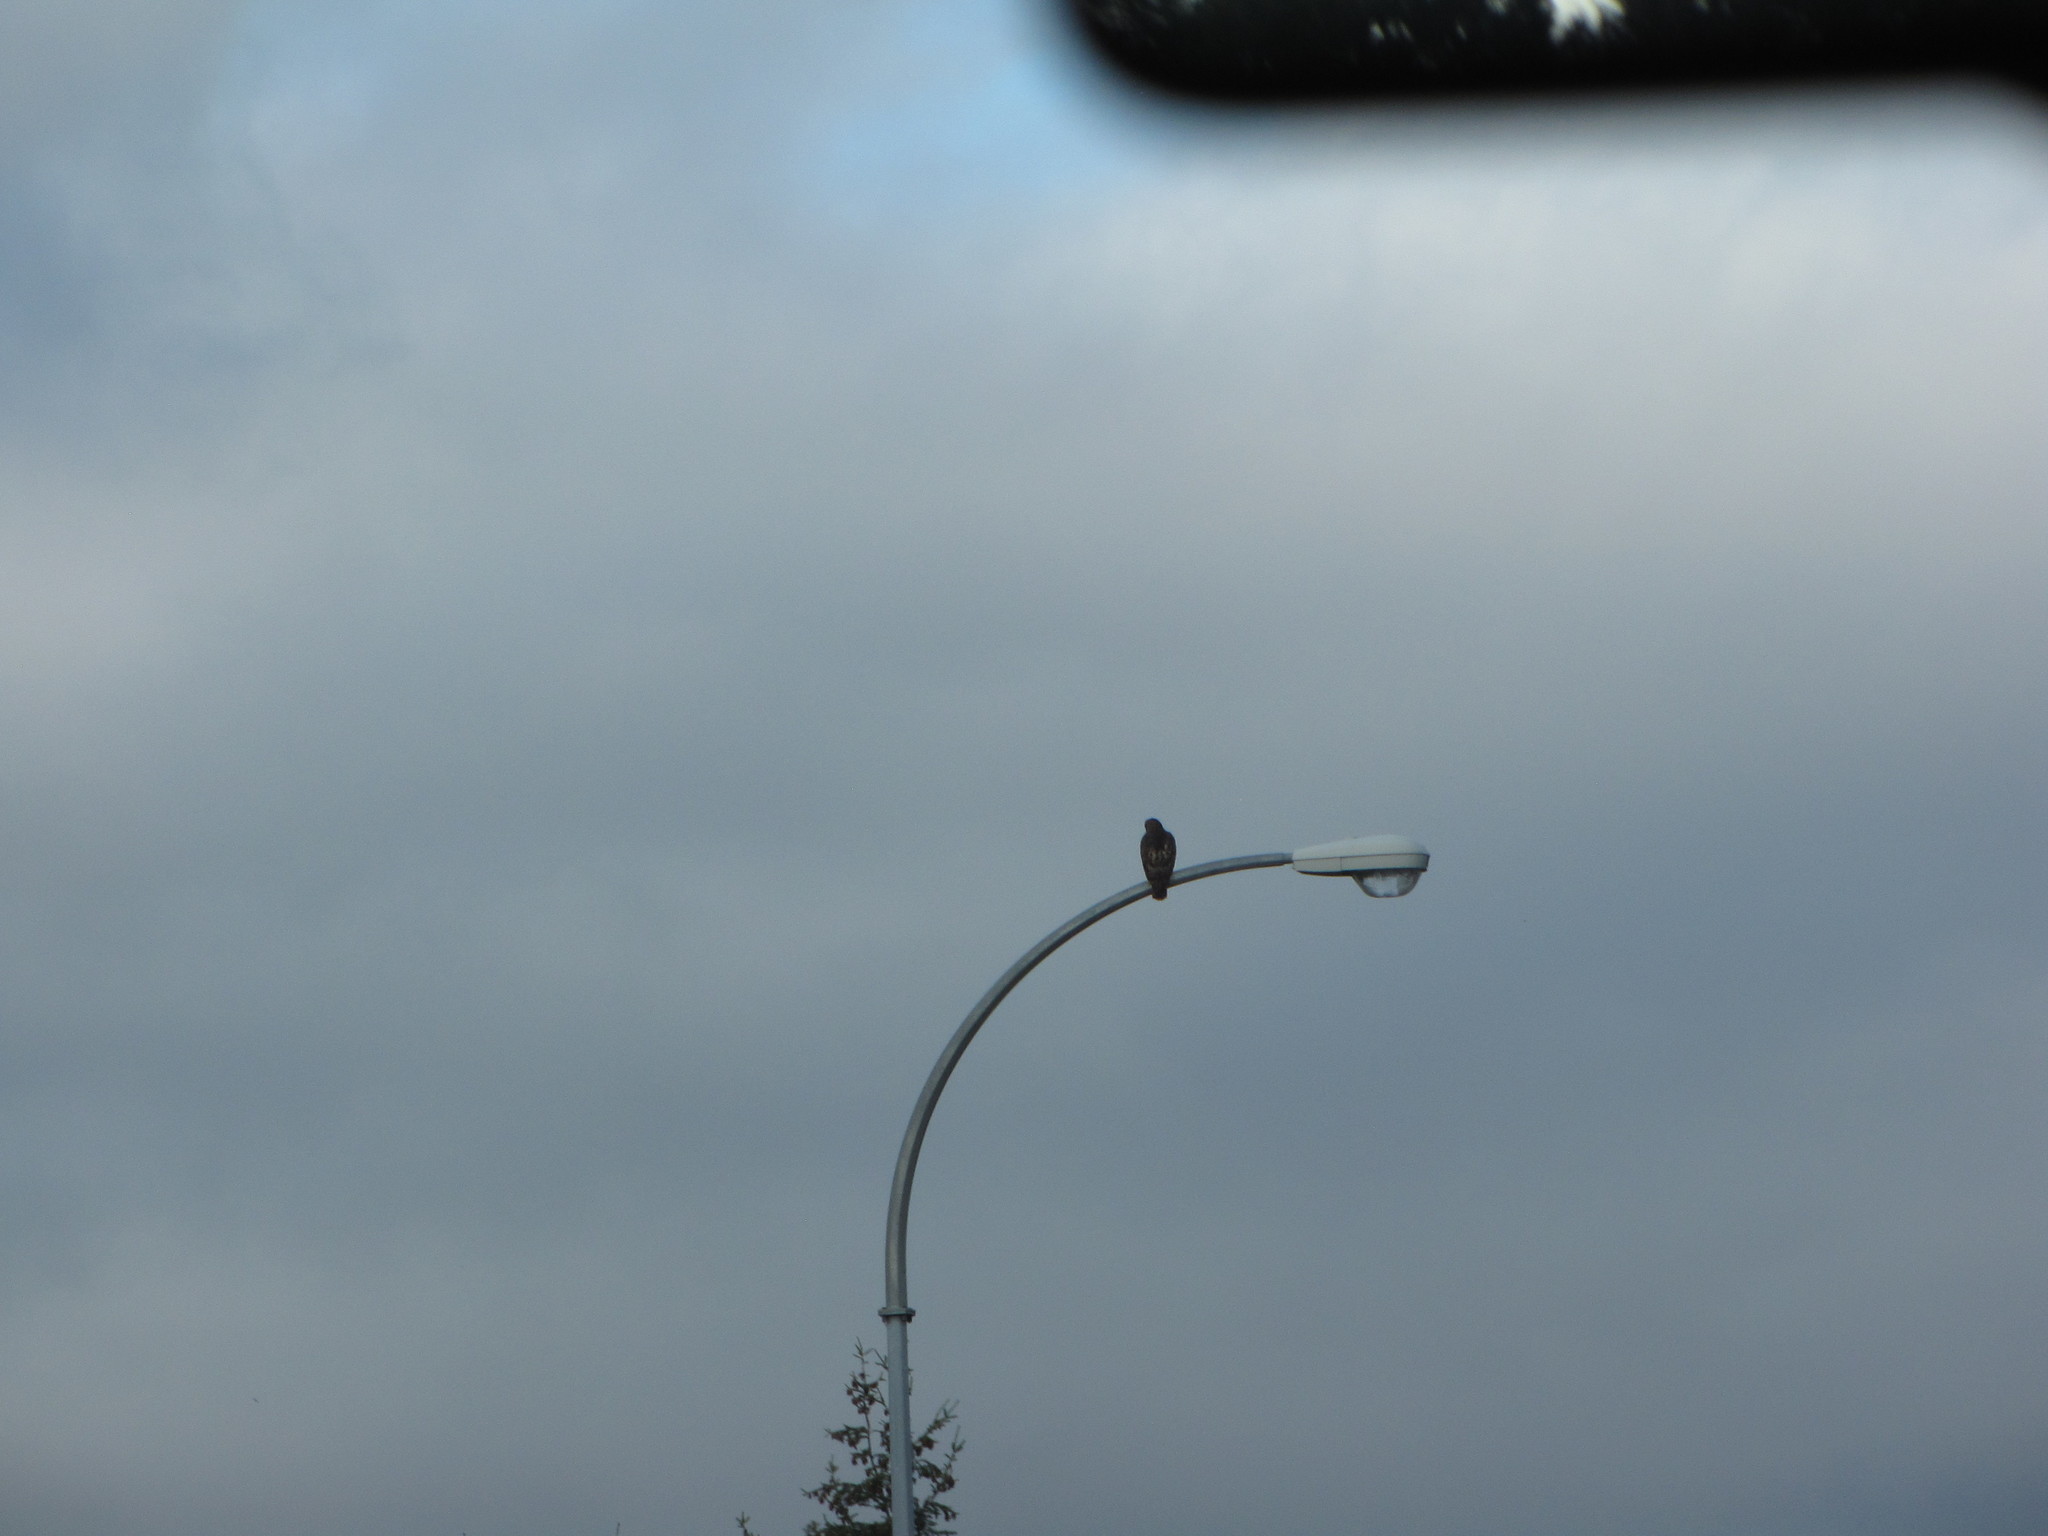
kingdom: Animalia
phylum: Chordata
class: Aves
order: Accipitriformes
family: Accipitridae
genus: Buteo
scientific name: Buteo jamaicensis
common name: Red-tailed hawk
